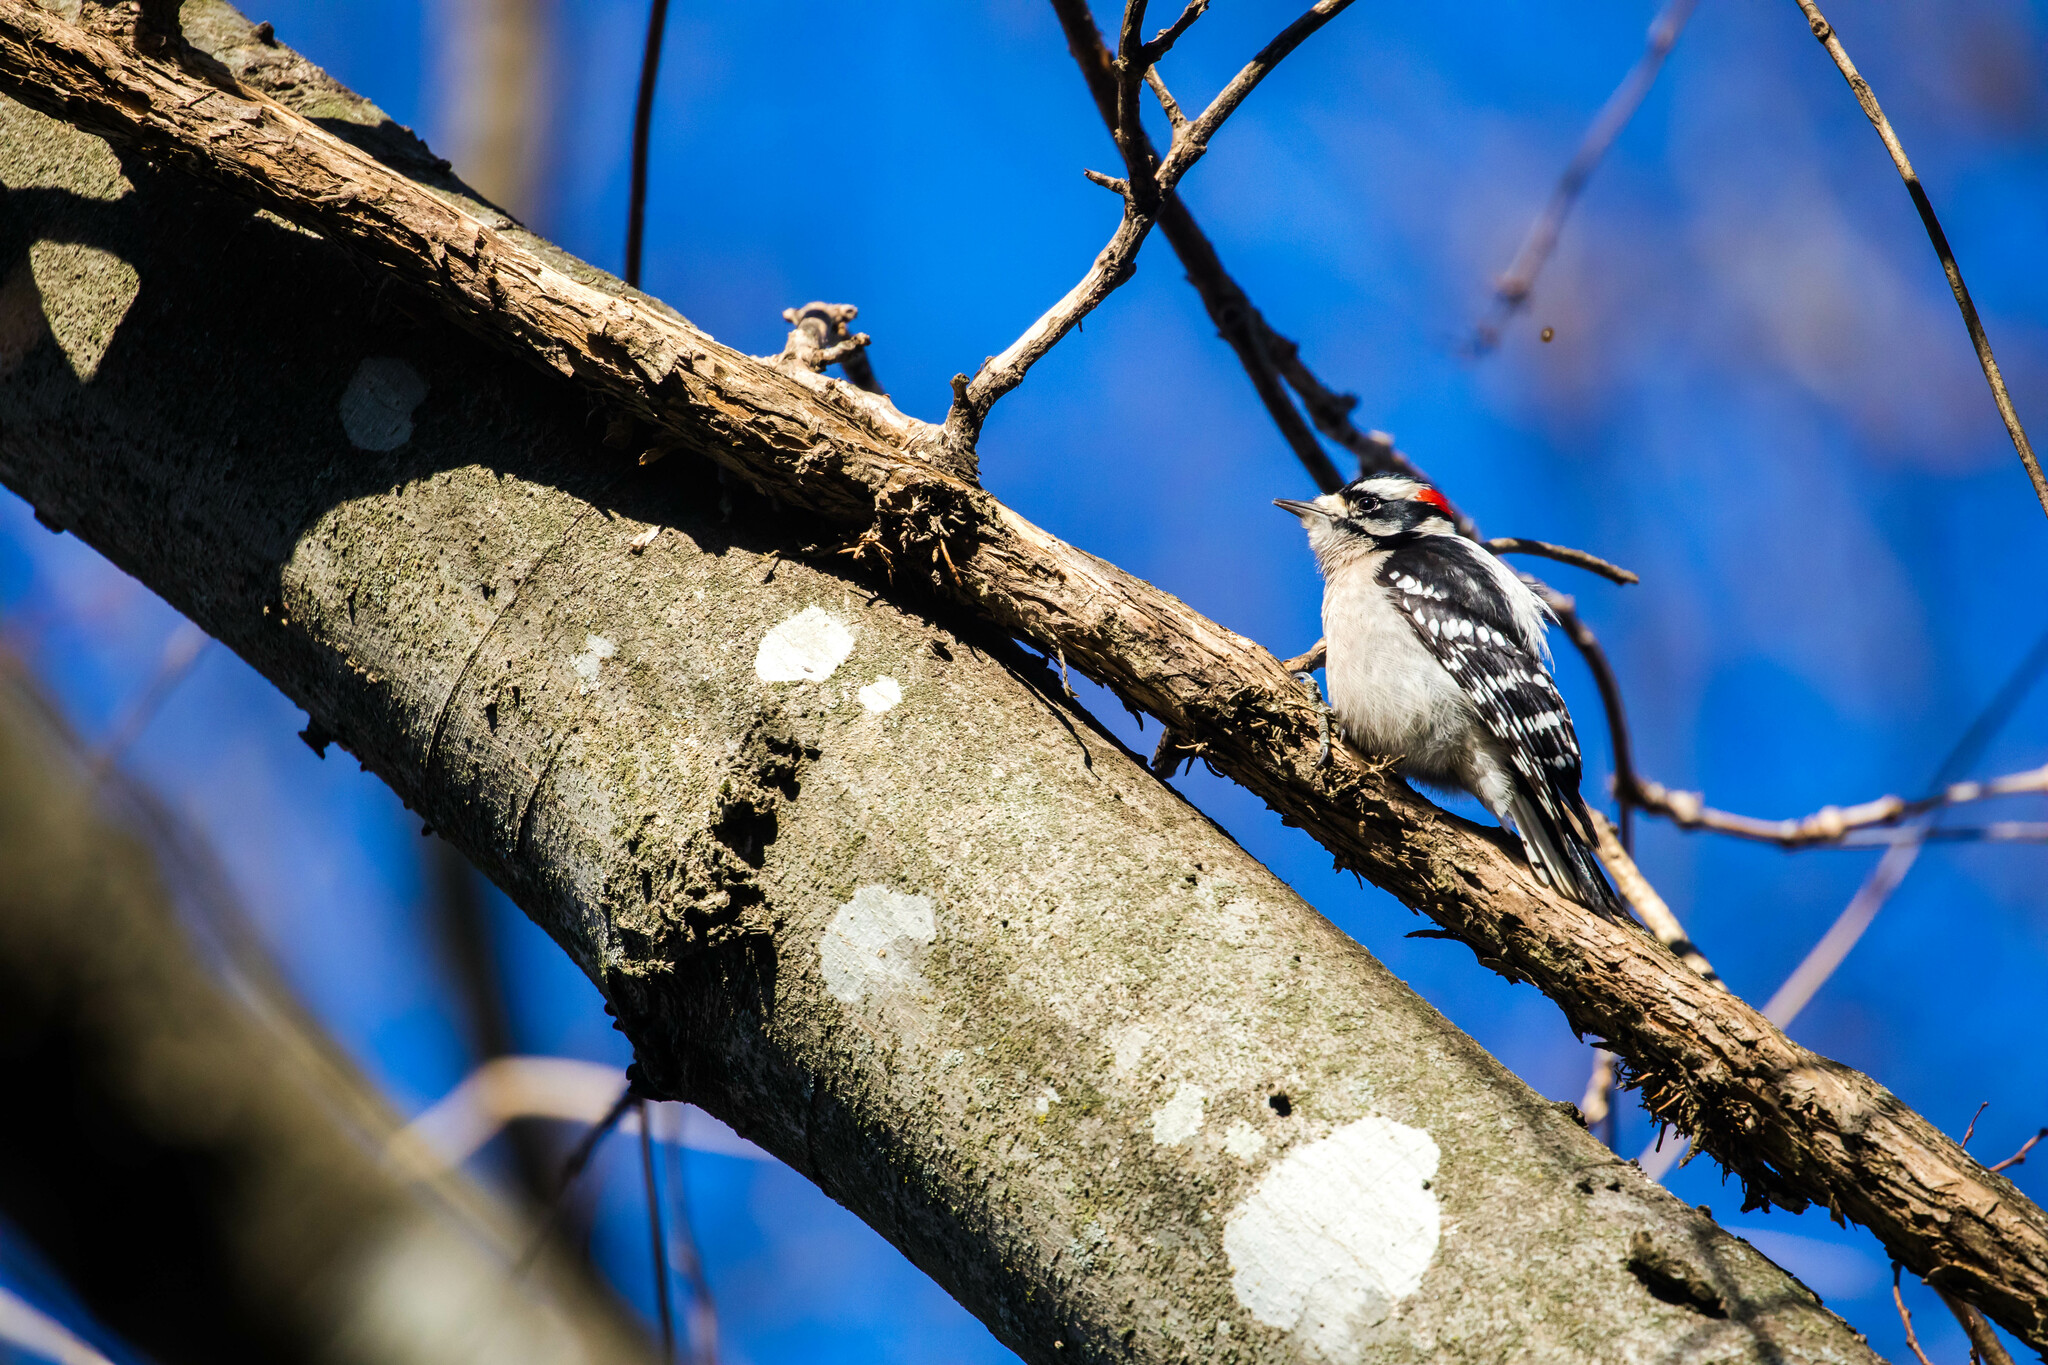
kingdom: Animalia
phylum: Chordata
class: Aves
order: Piciformes
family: Picidae
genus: Dryobates
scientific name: Dryobates pubescens
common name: Downy woodpecker
